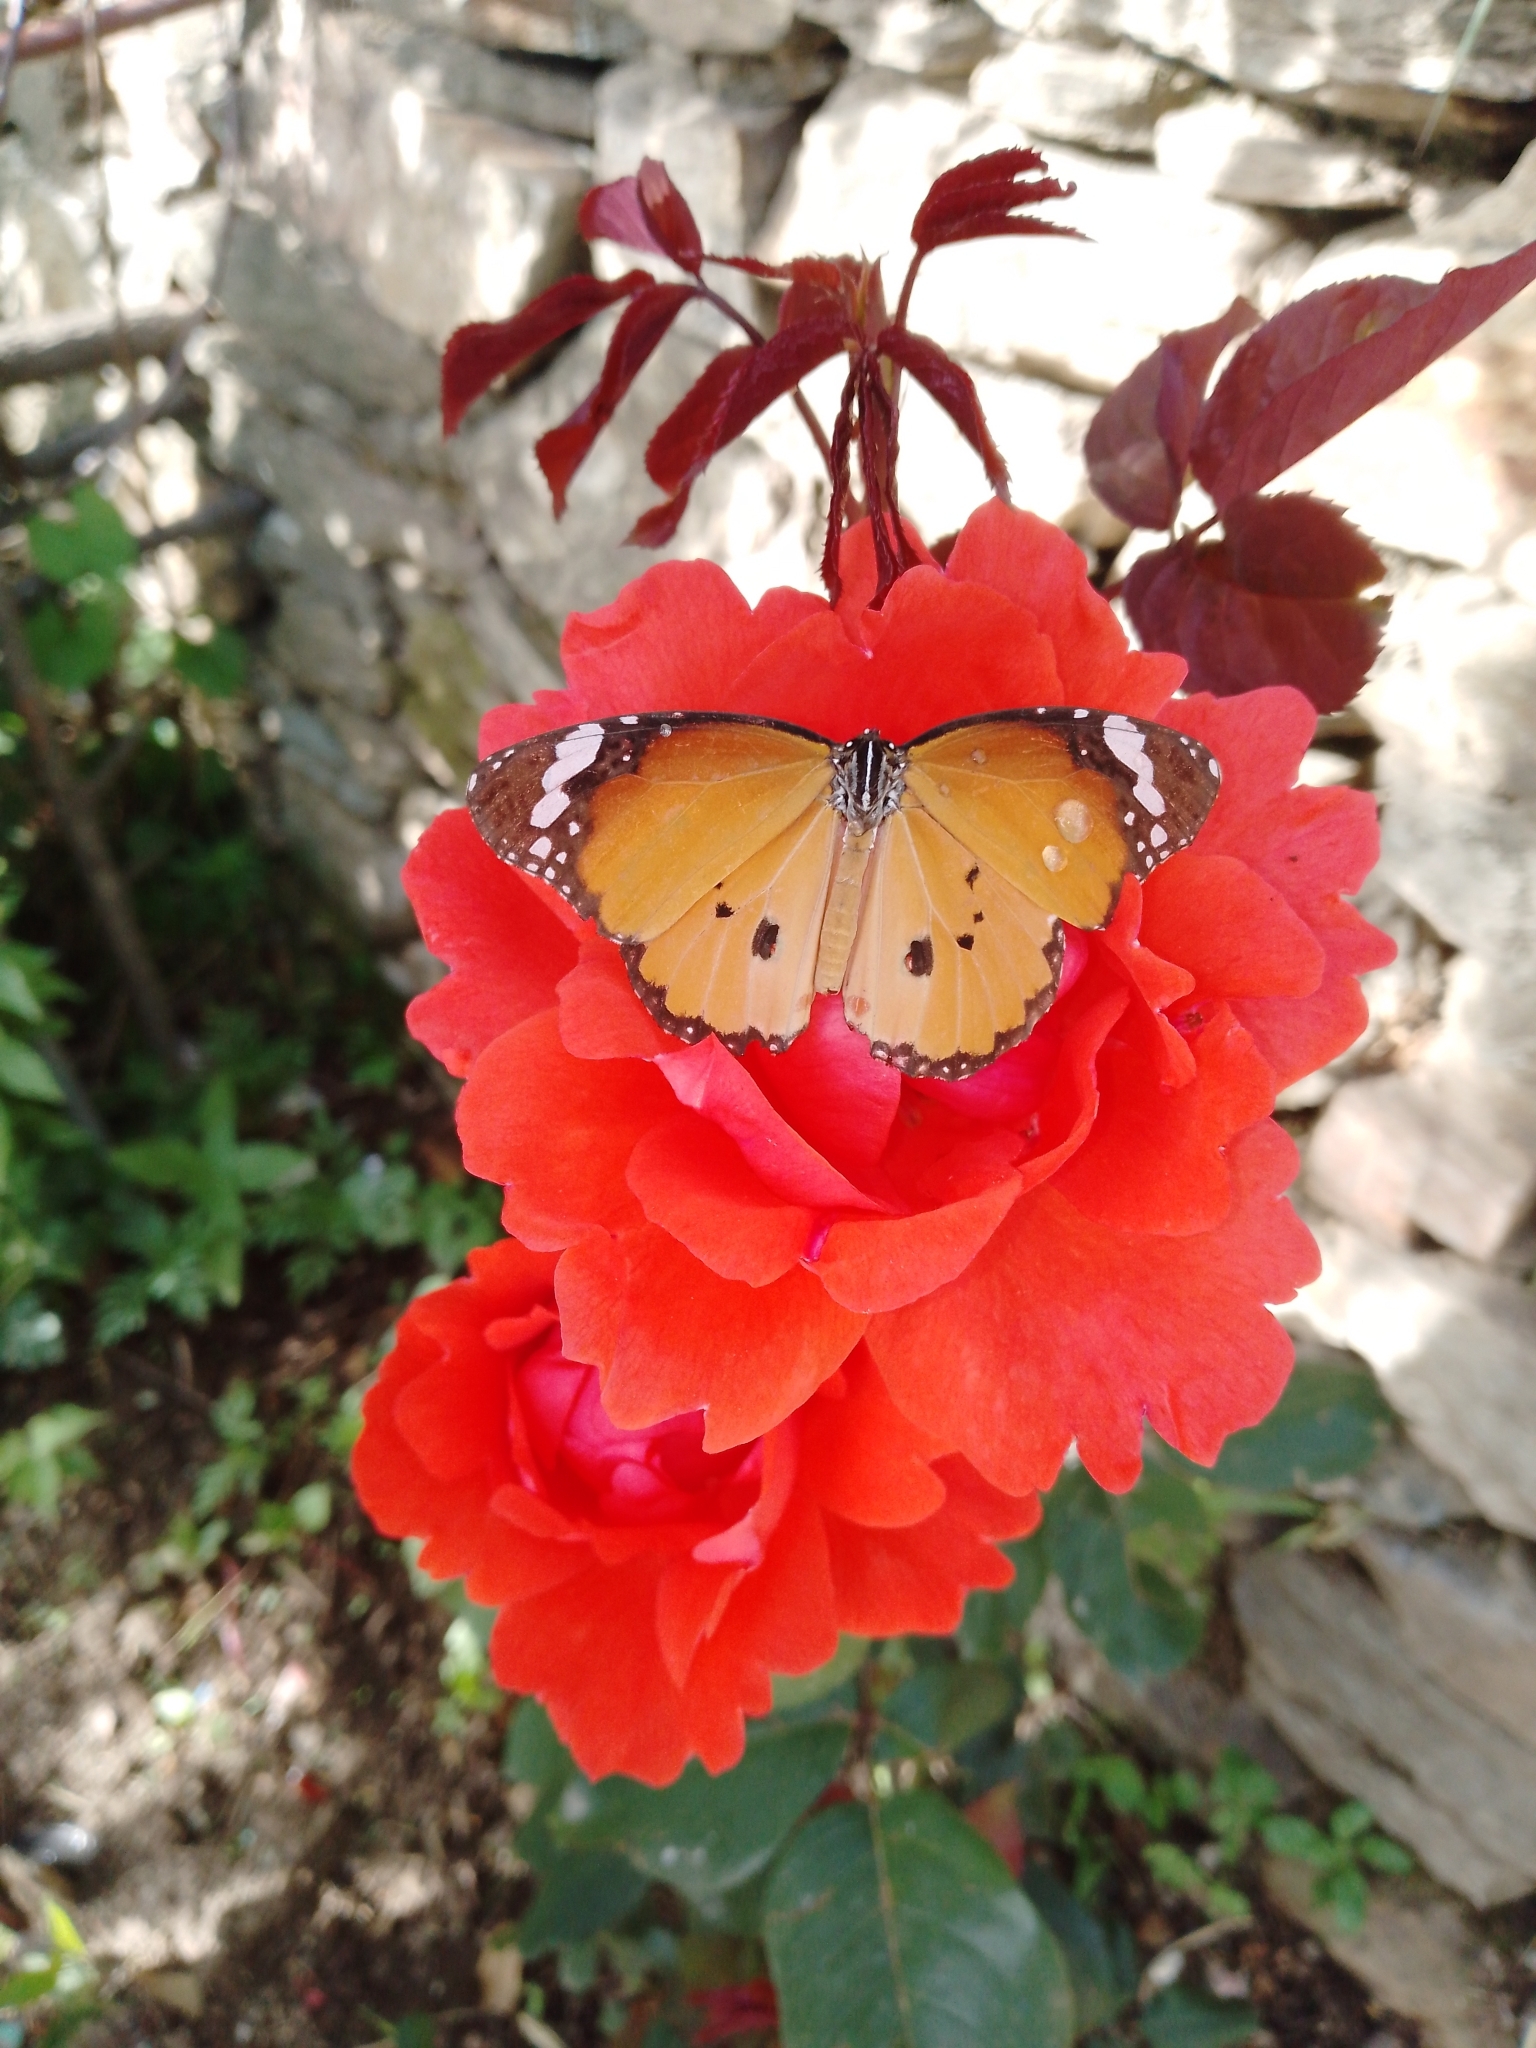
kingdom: Animalia
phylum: Arthropoda
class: Insecta
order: Lepidoptera
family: Nymphalidae
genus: Danaus
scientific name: Danaus chrysippus
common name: Plain tiger
